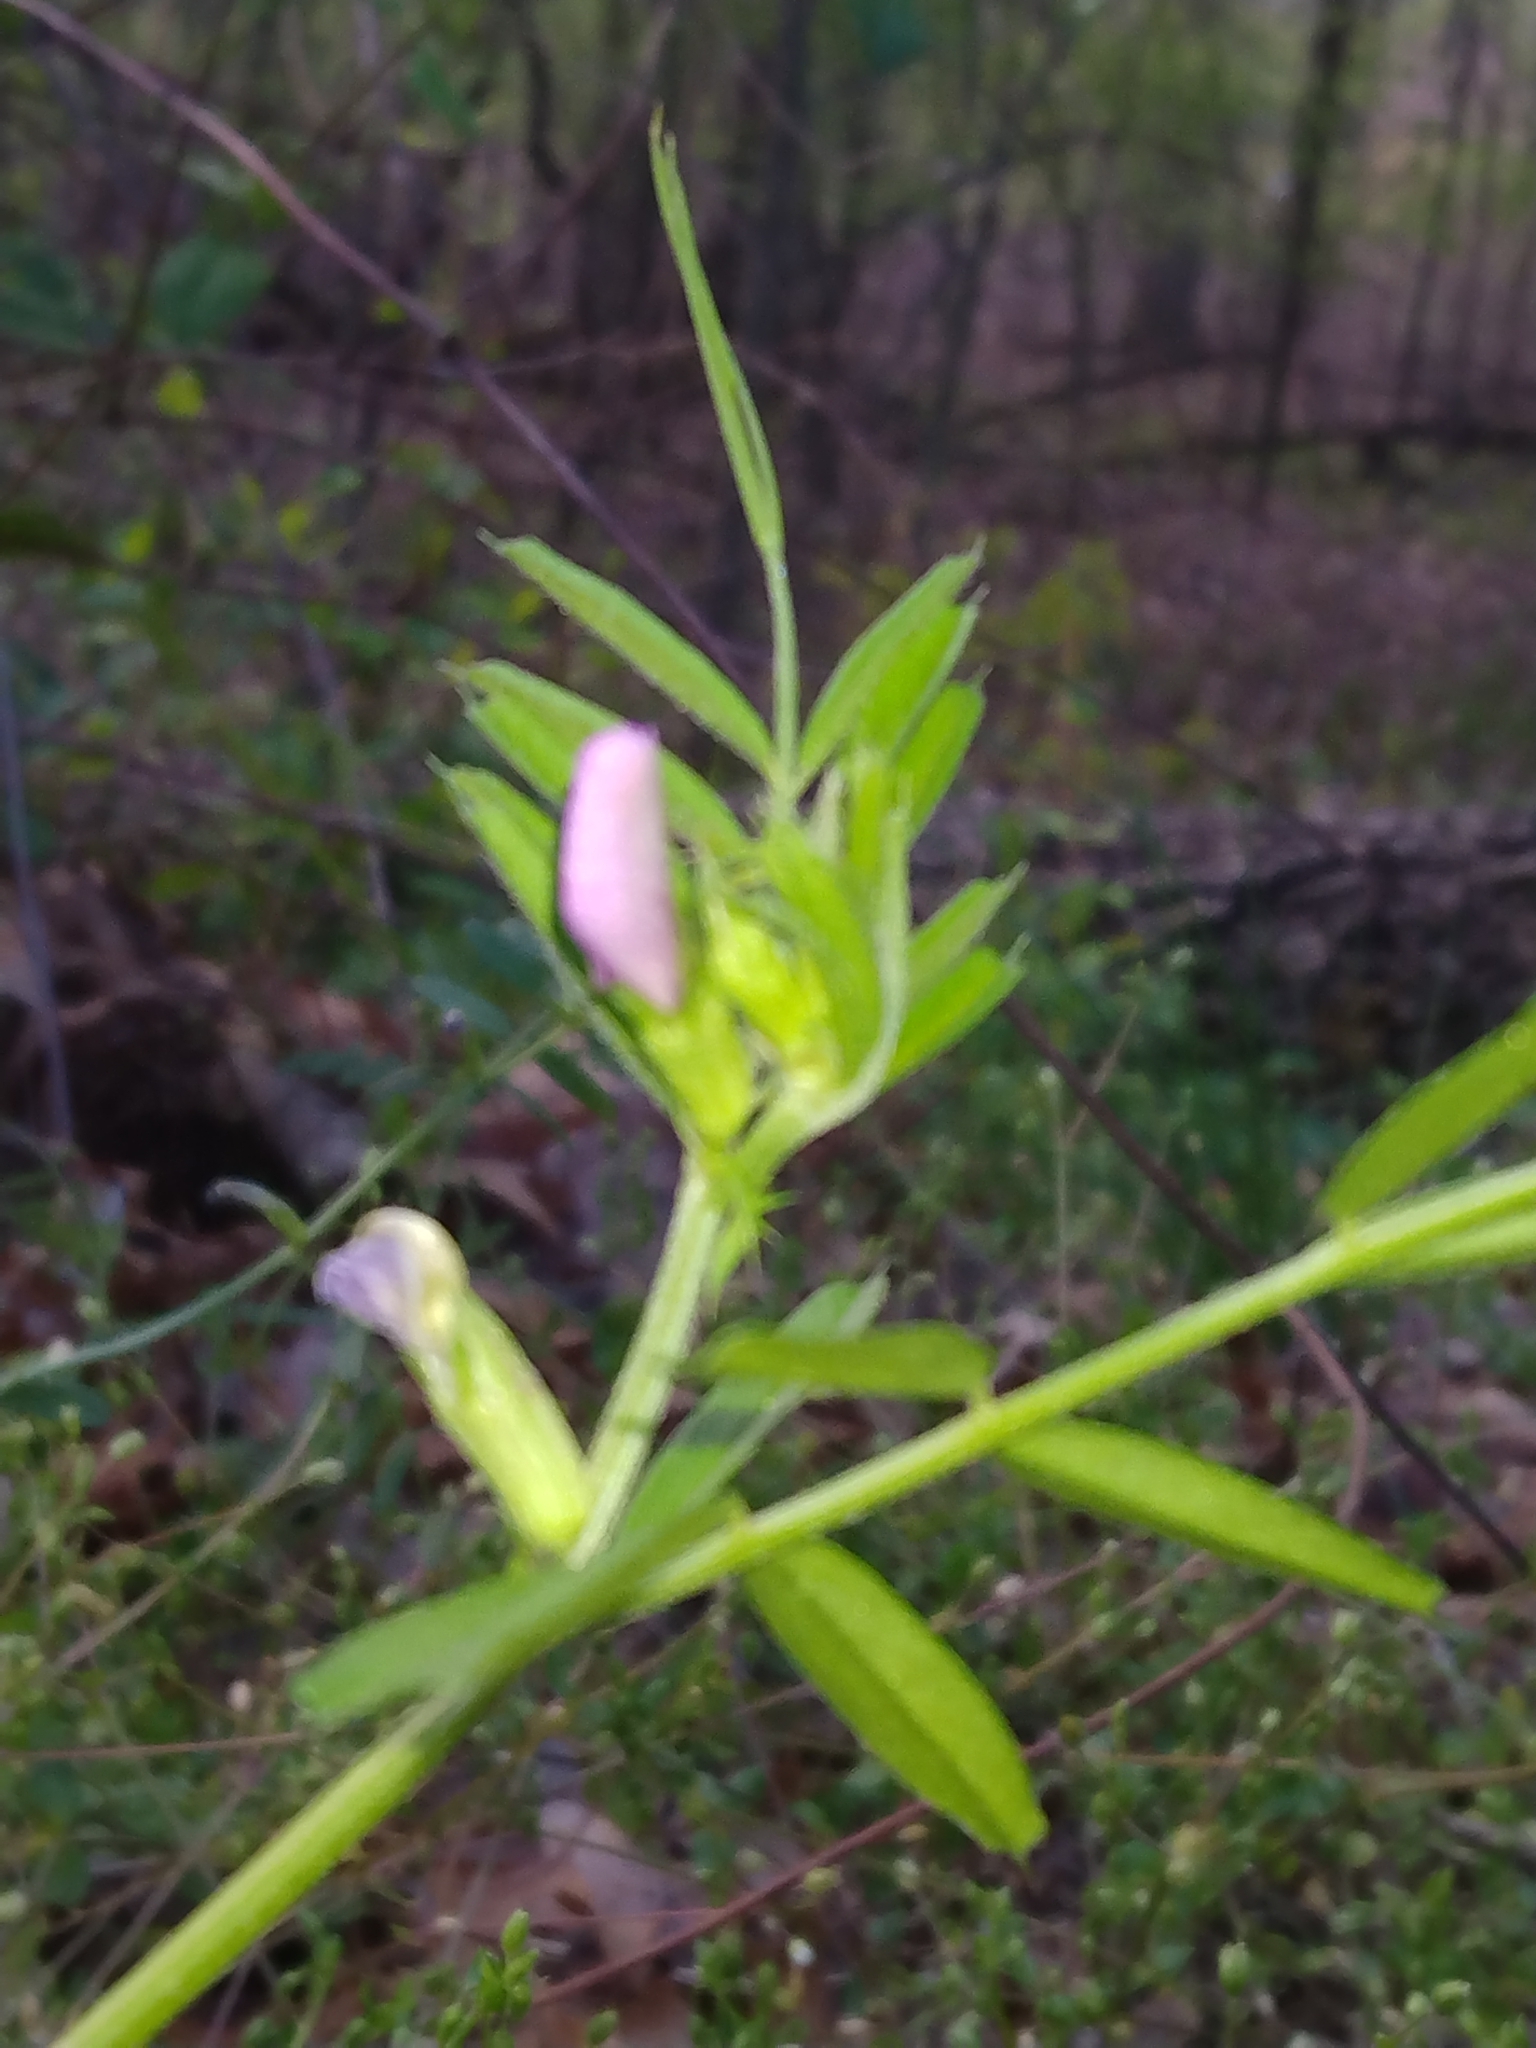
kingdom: Plantae
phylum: Tracheophyta
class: Magnoliopsida
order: Fabales
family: Fabaceae
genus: Vicia
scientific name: Vicia sativa
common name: Garden vetch
